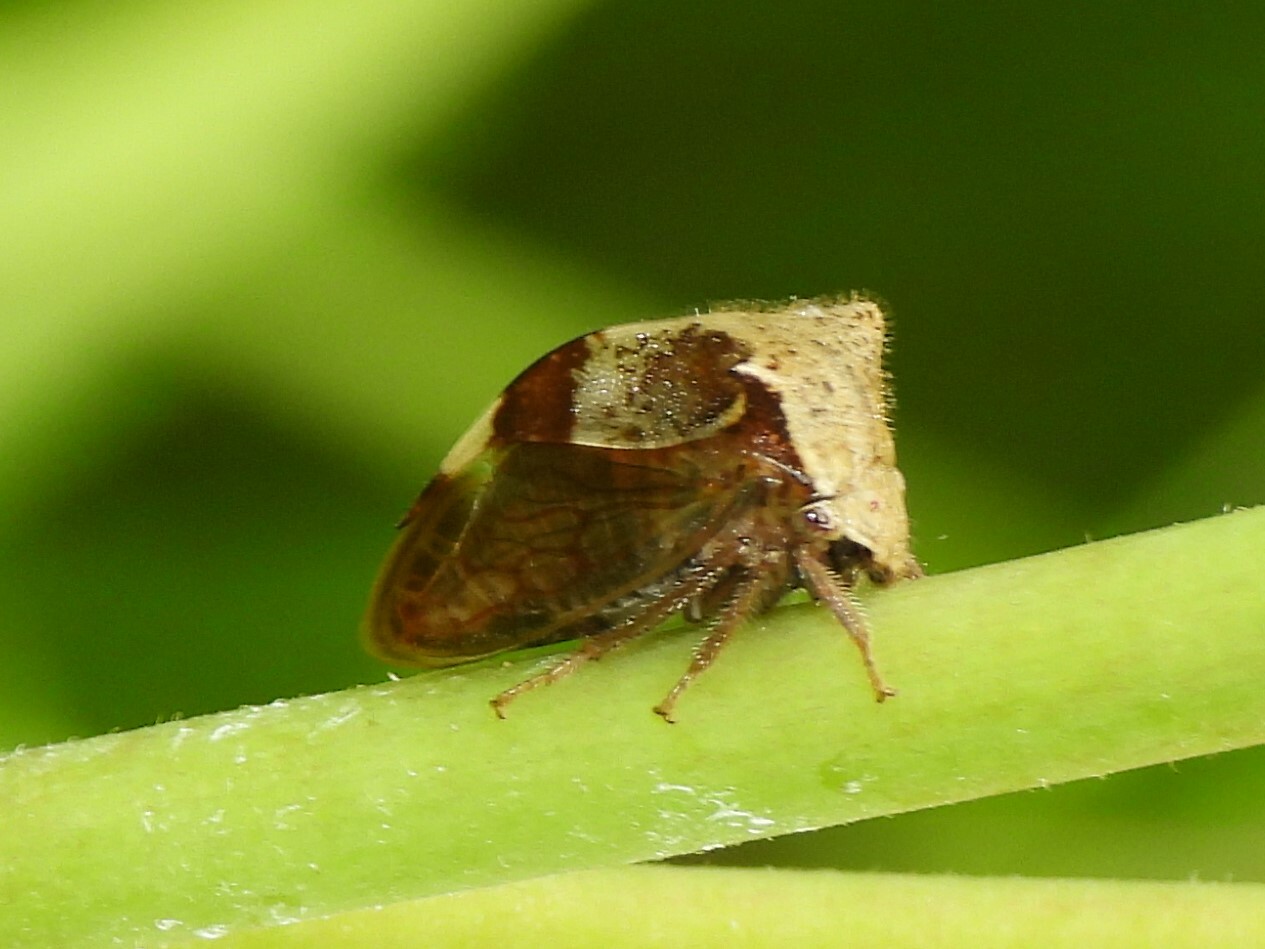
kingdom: Animalia
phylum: Arthropoda
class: Insecta
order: Hemiptera
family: Membracidae
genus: Stictocephala
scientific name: Stictocephala diceros
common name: Two-horned treehopper
